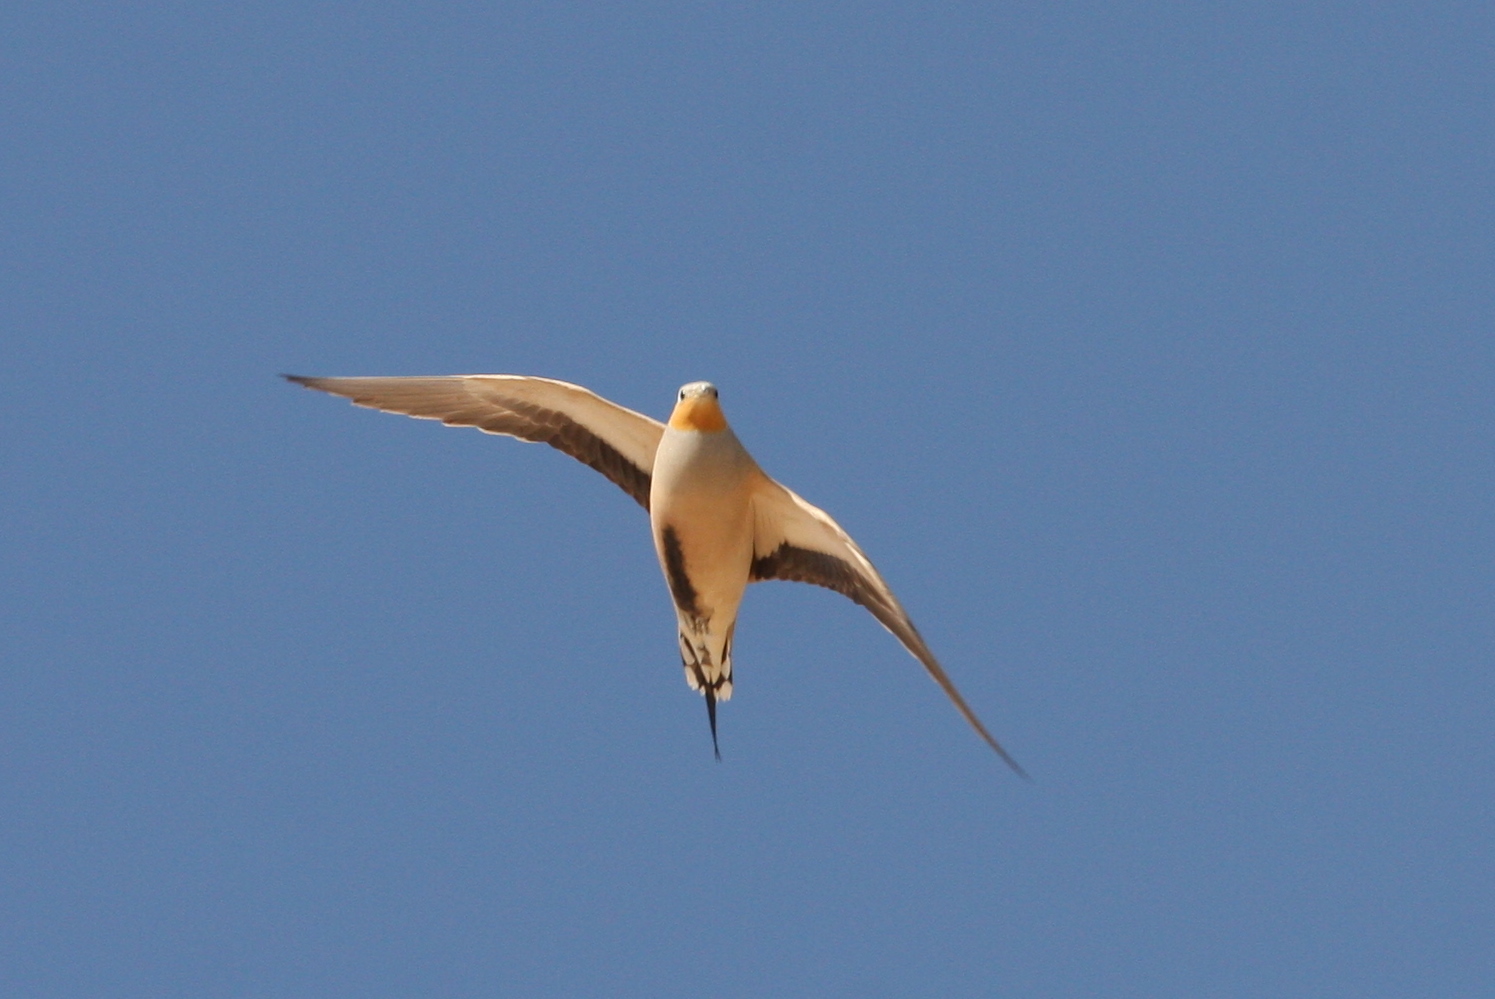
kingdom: Animalia
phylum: Chordata
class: Aves
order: Pteroclidiformes
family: Pteroclididae
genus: Pterocles
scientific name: Pterocles senegallus
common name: Spotted sandgrouse
